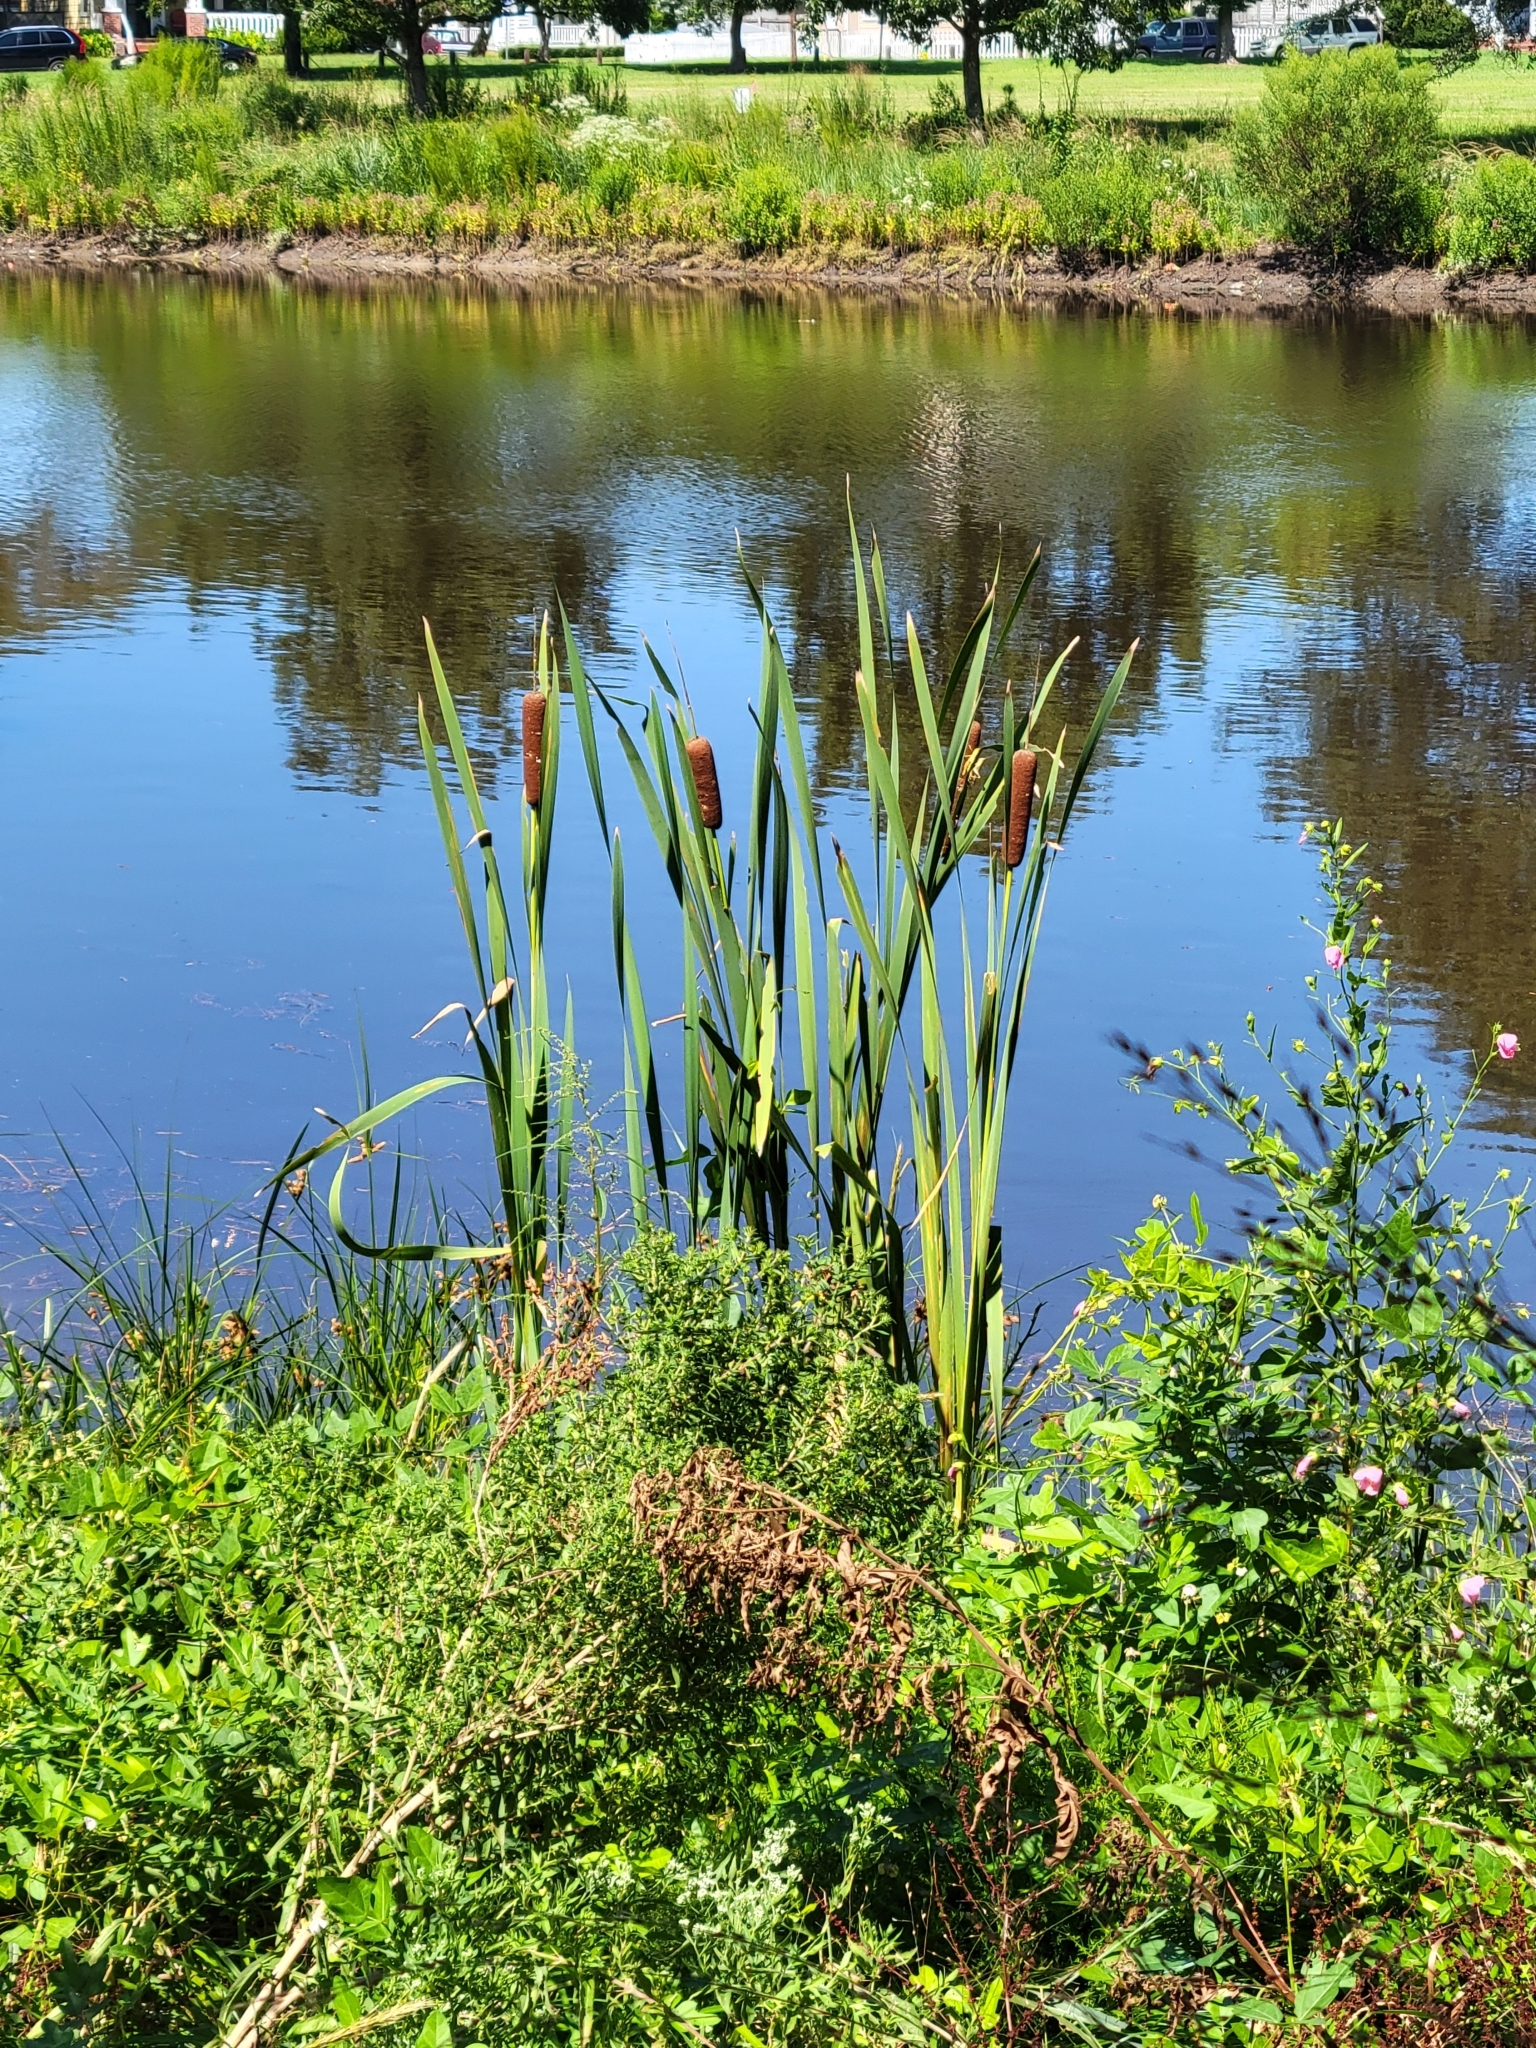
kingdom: Plantae
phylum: Tracheophyta
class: Liliopsida
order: Poales
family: Typhaceae
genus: Typha
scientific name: Typha latifolia
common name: Broadleaf cattail
